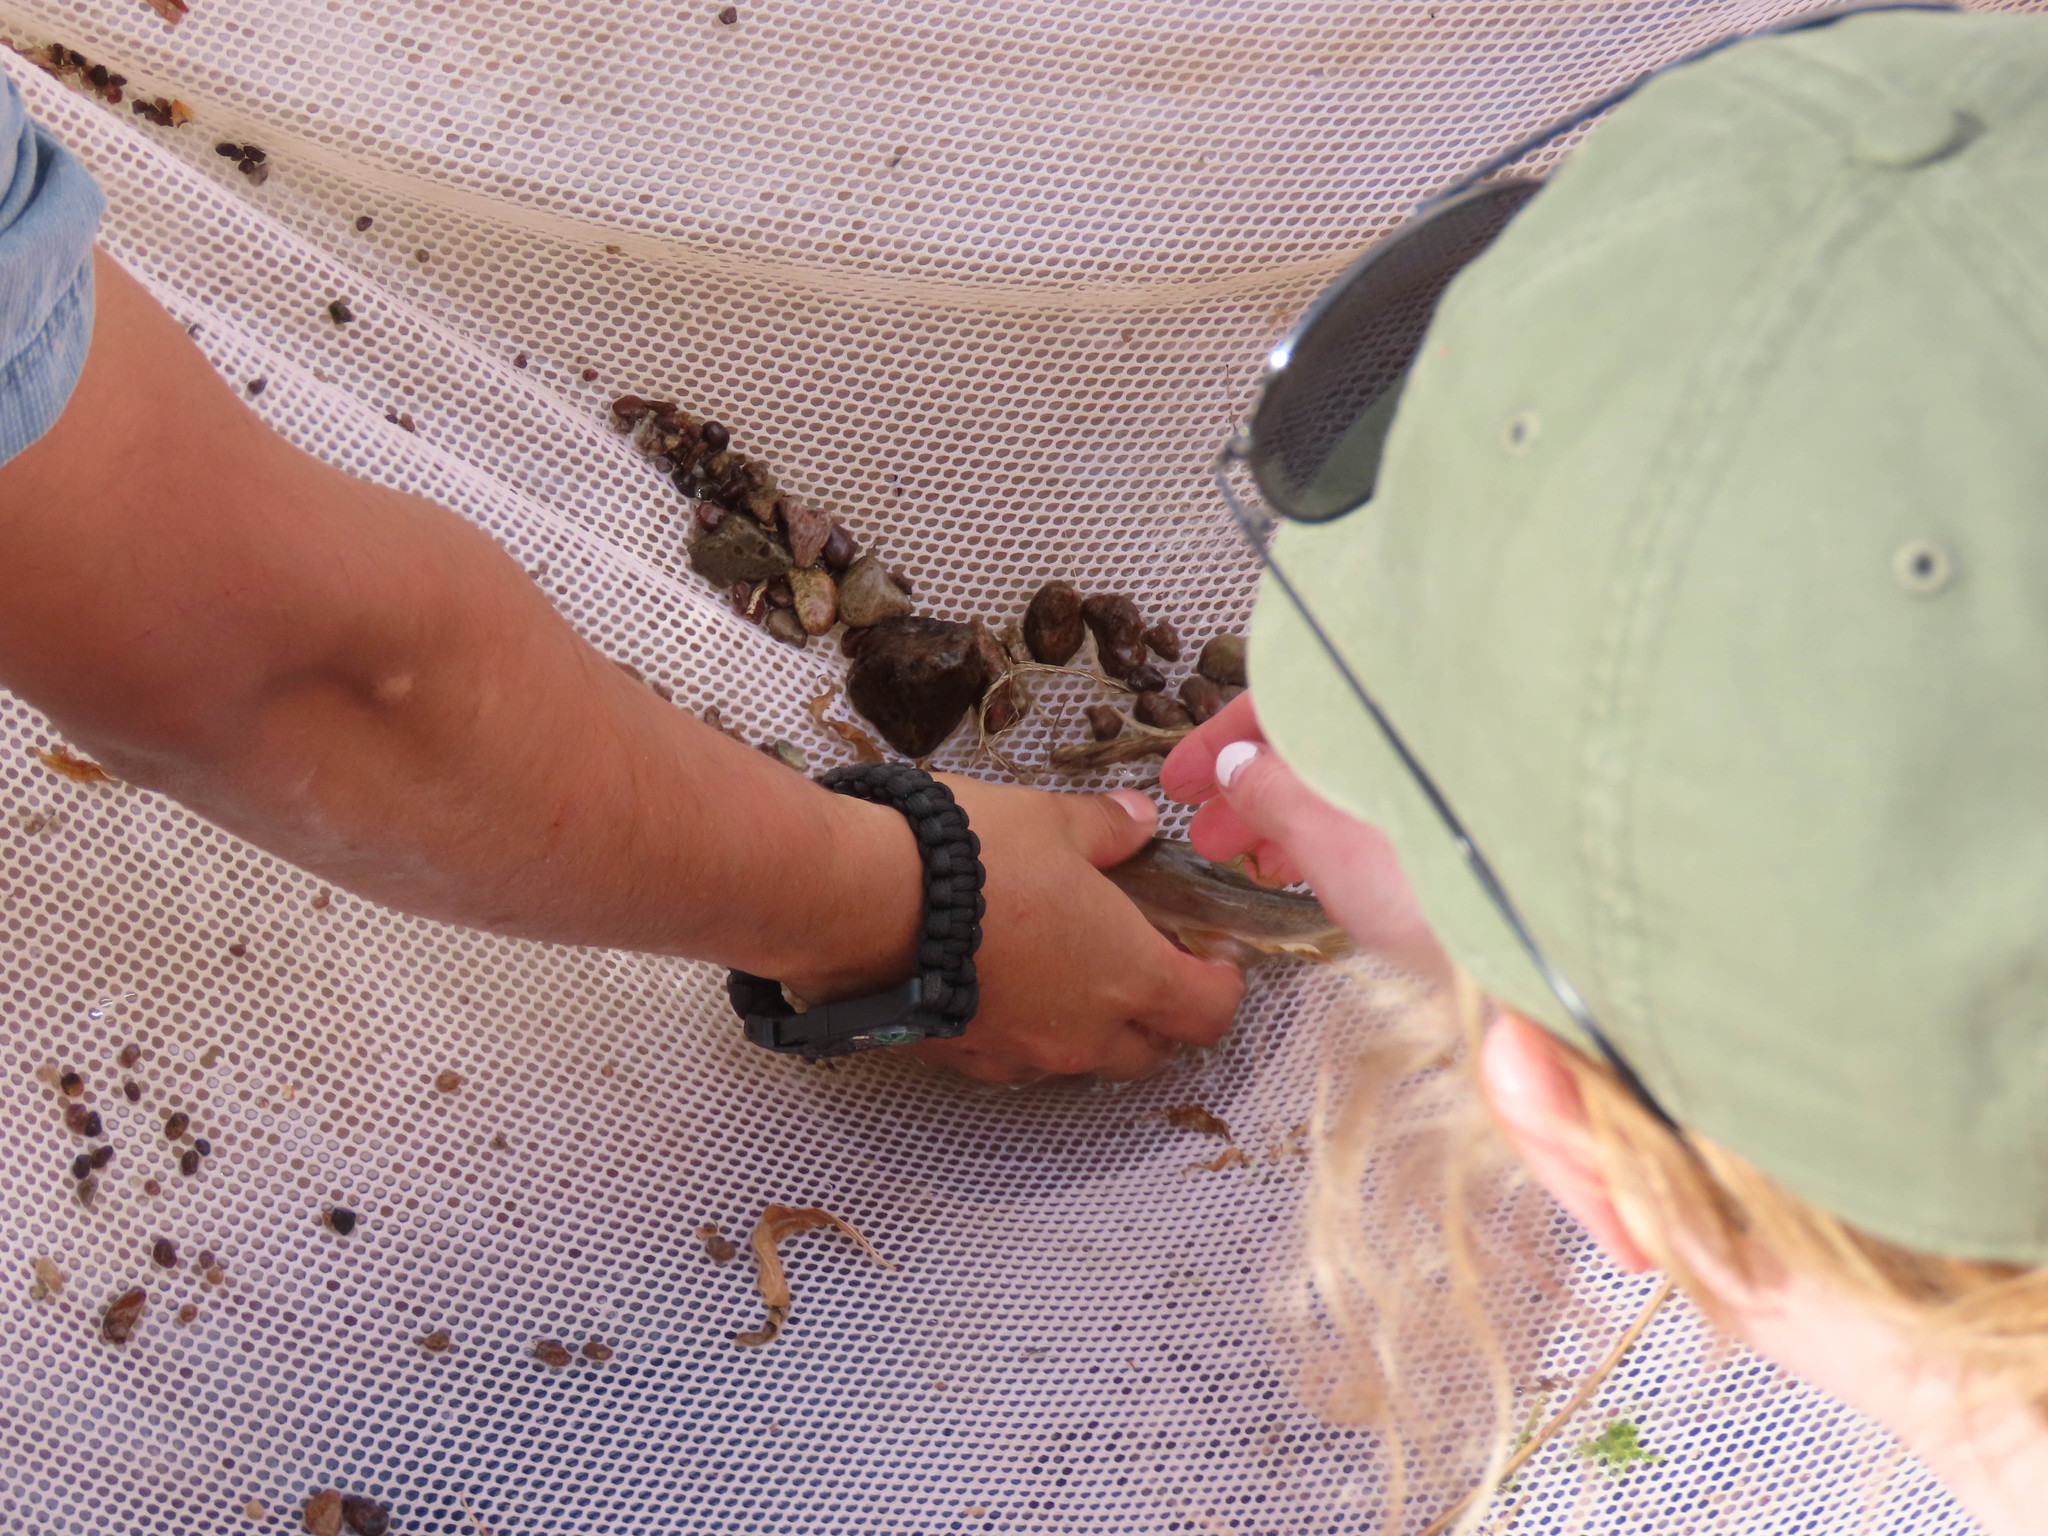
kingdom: Animalia
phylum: Chordata
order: Cypriniformes
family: Catostomidae
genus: Catostomus
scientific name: Catostomus clarkii
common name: Desert sucker
